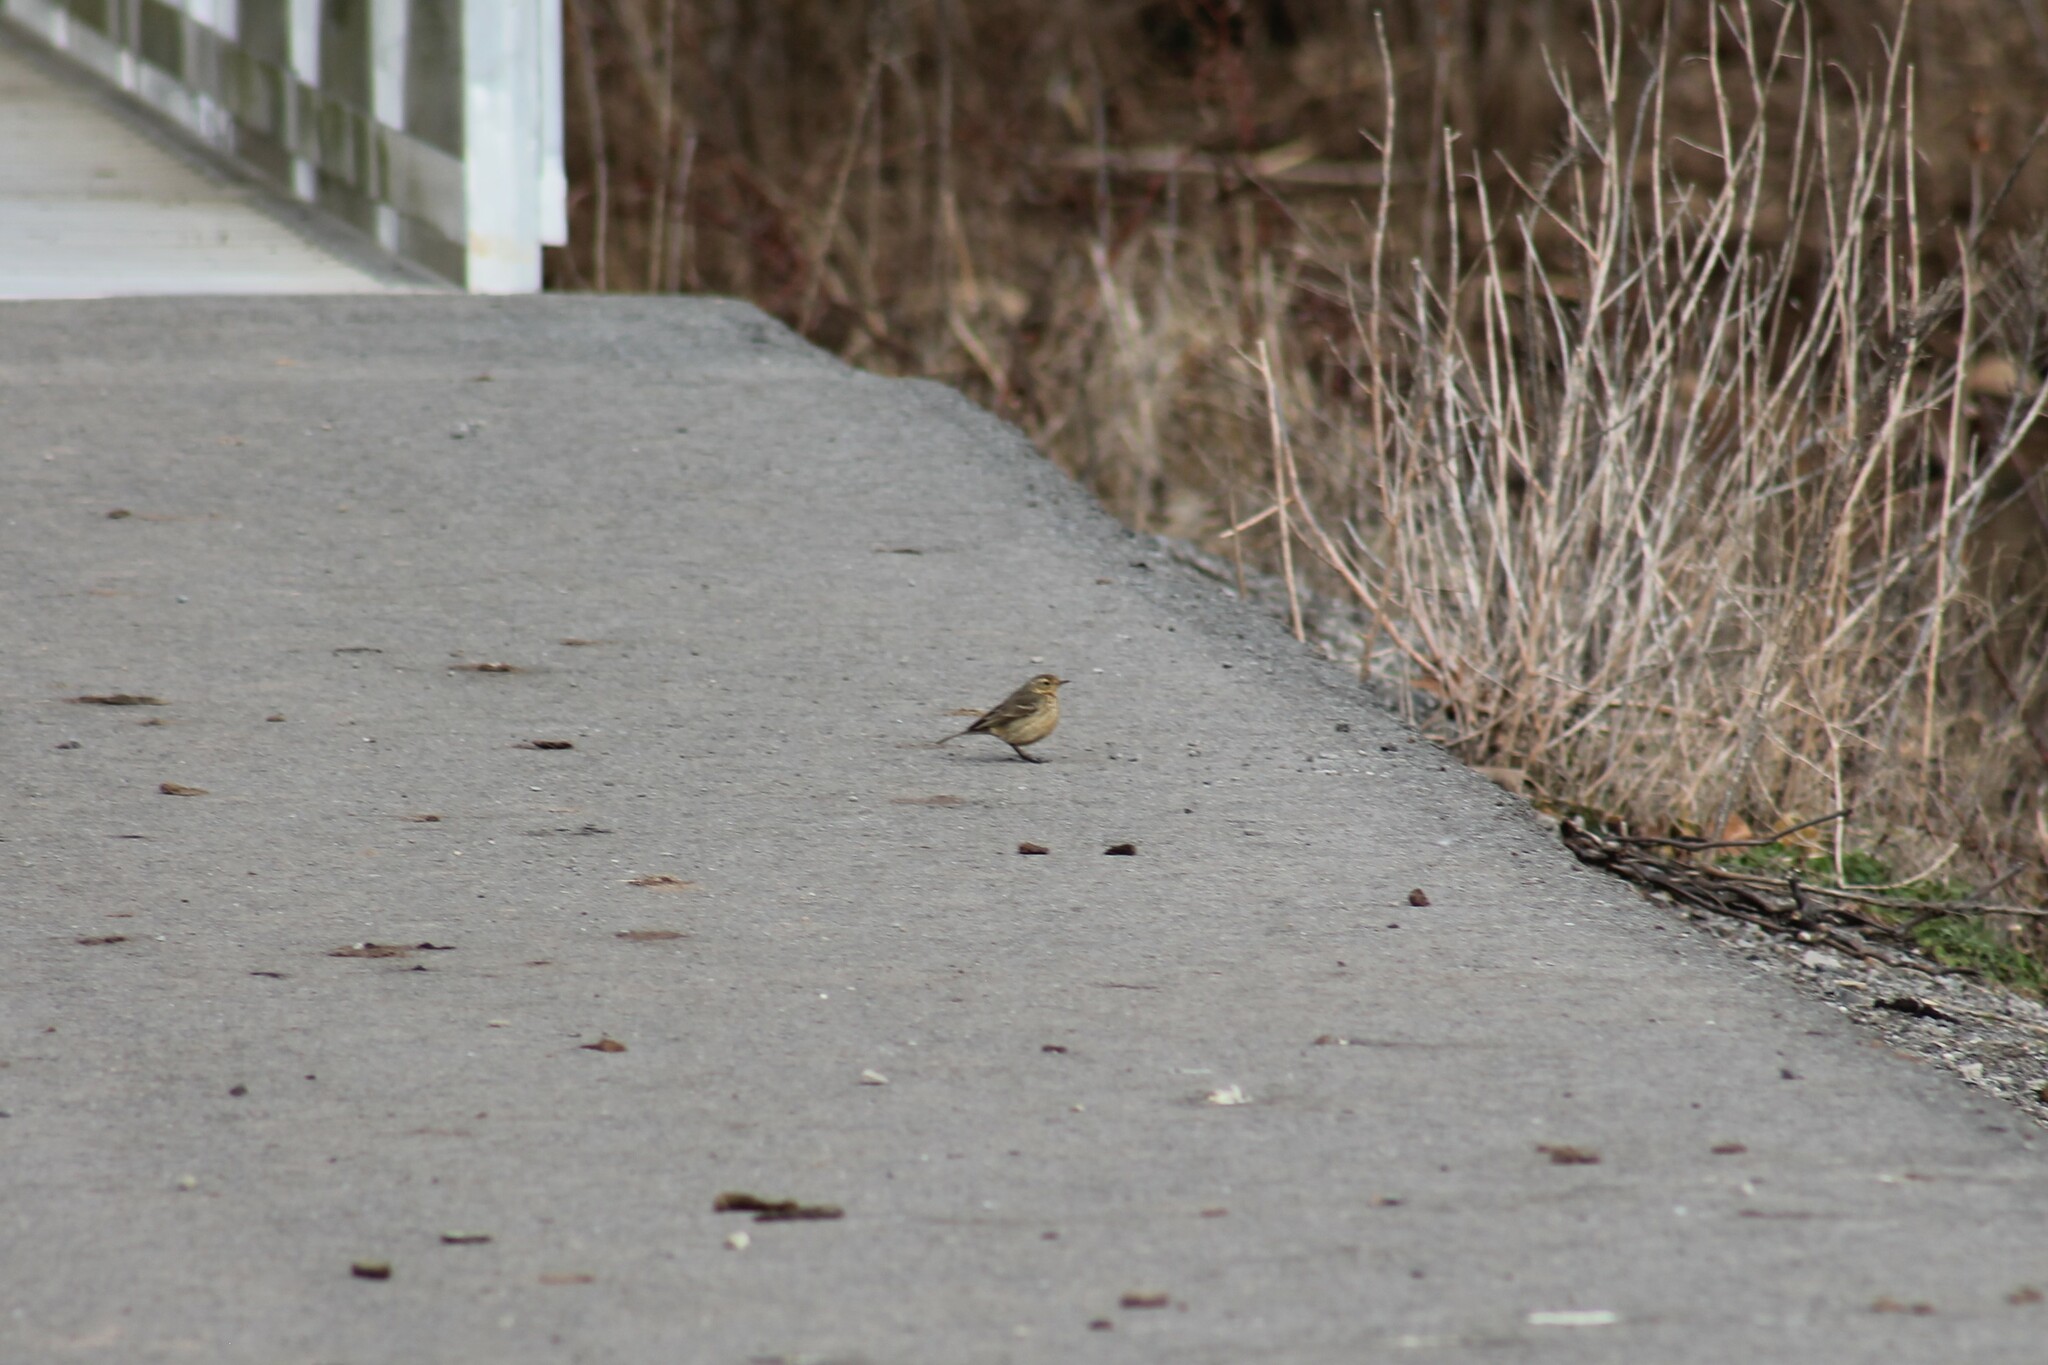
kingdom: Animalia
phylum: Chordata
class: Aves
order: Passeriformes
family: Motacillidae
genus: Anthus
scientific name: Anthus rubescens
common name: Buff-bellied pipit
